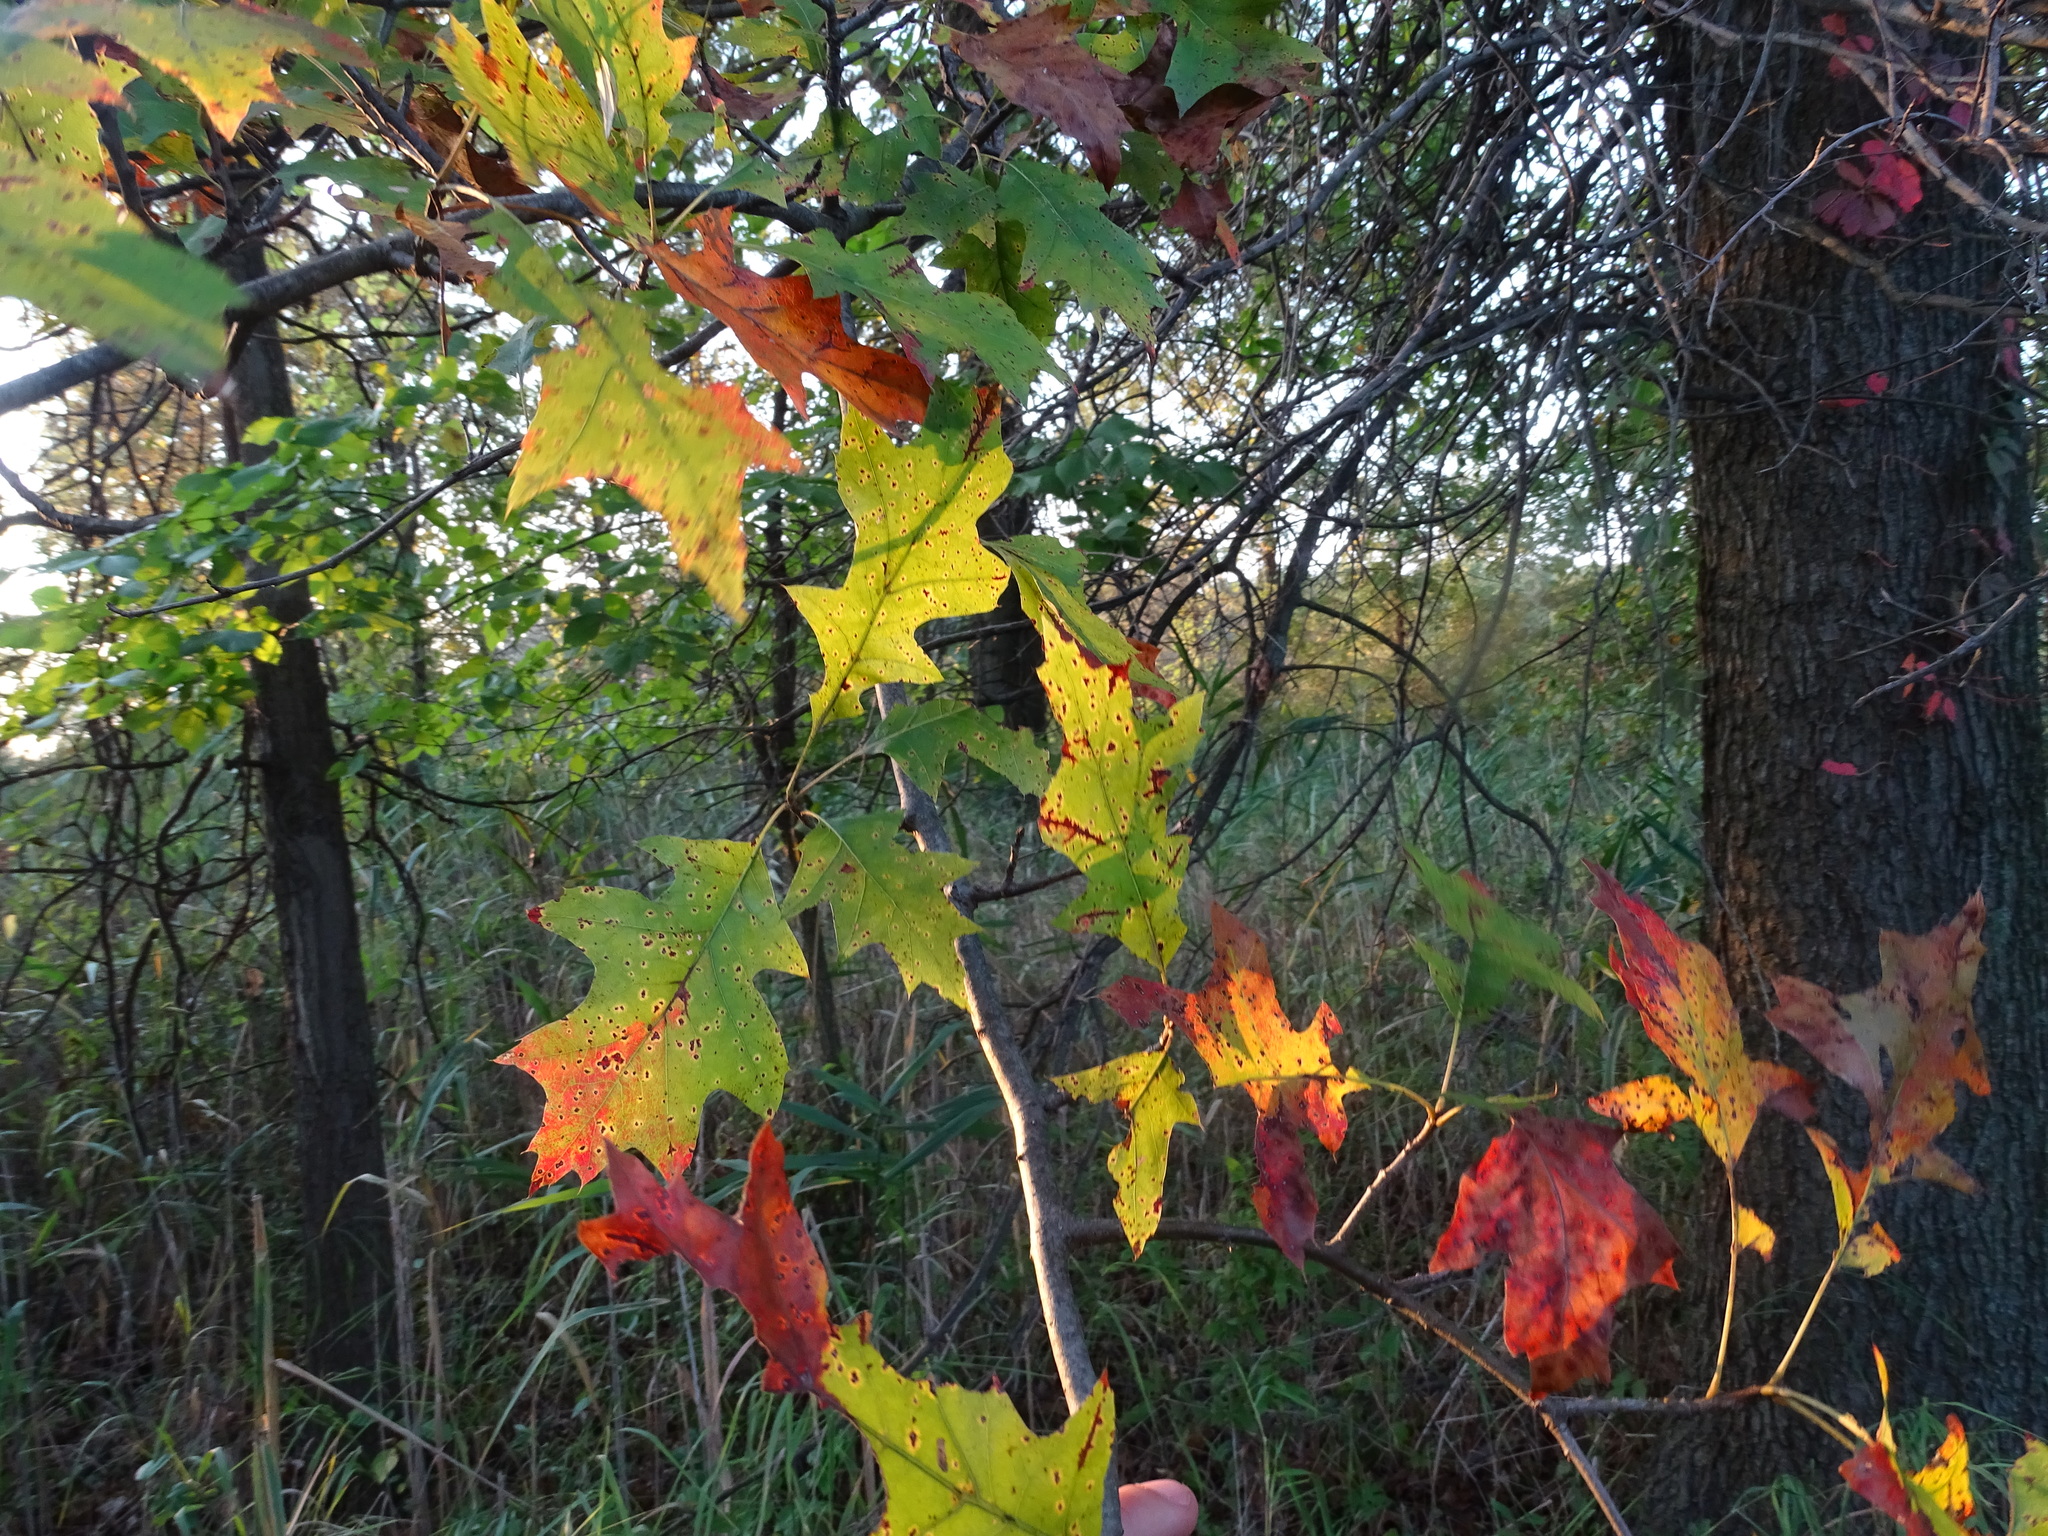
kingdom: Plantae
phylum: Tracheophyta
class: Magnoliopsida
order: Fagales
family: Fagaceae
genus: Quercus
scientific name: Quercus palustris
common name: Pin oak
